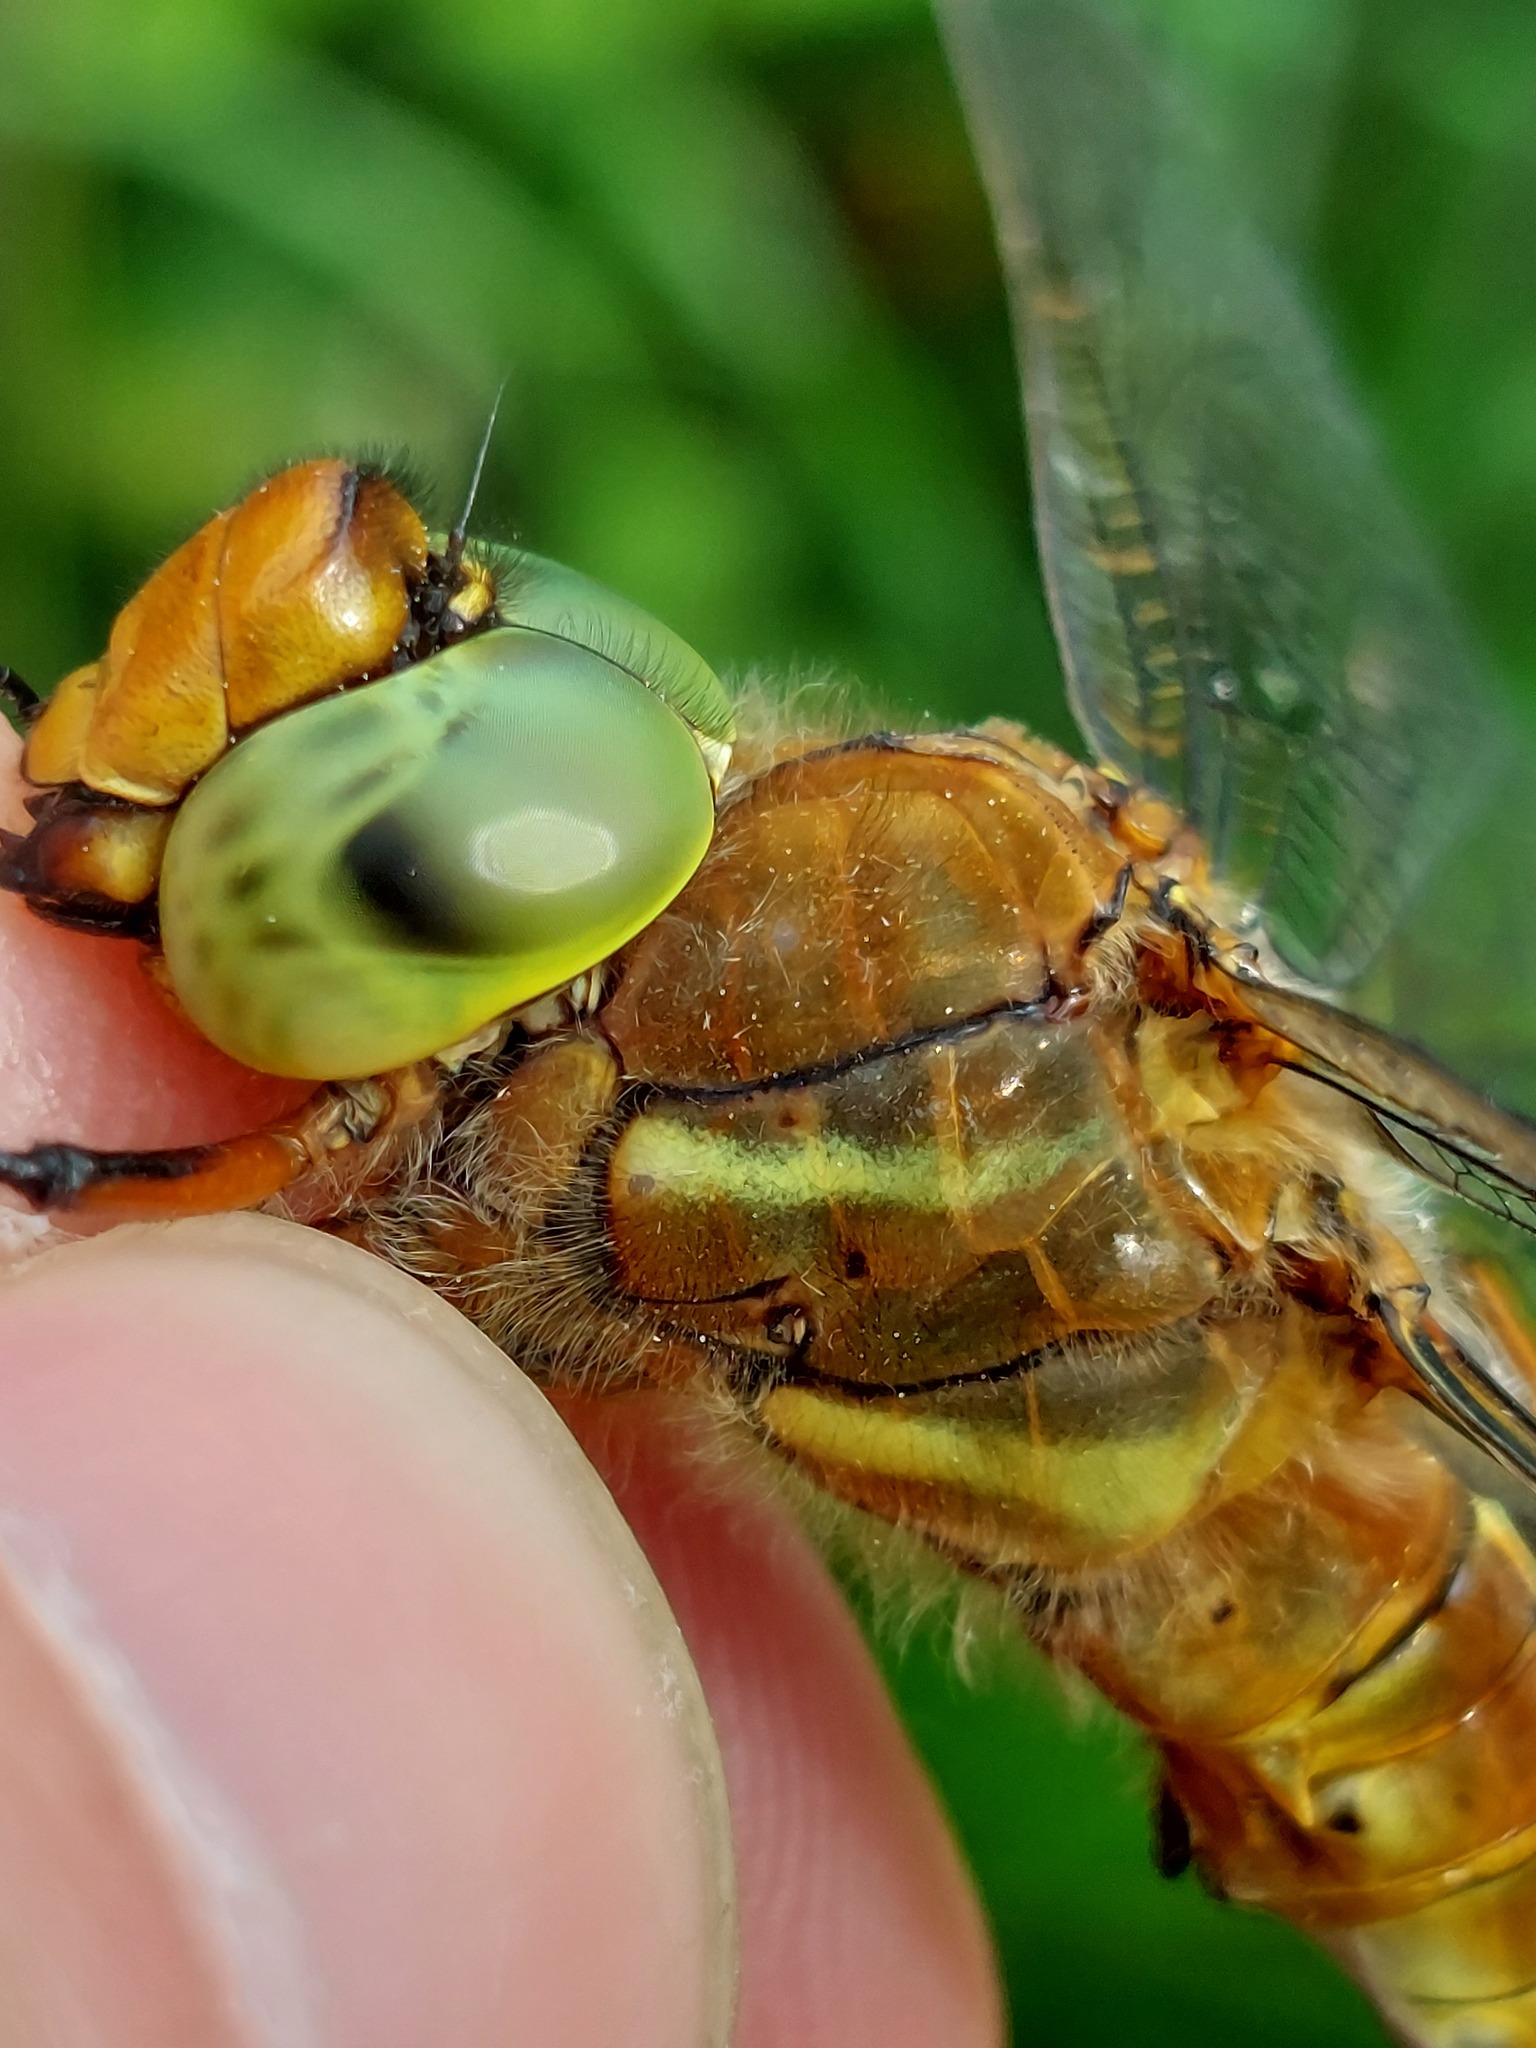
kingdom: Animalia
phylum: Arthropoda
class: Insecta
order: Odonata
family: Aeshnidae
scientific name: Aeshnidae
